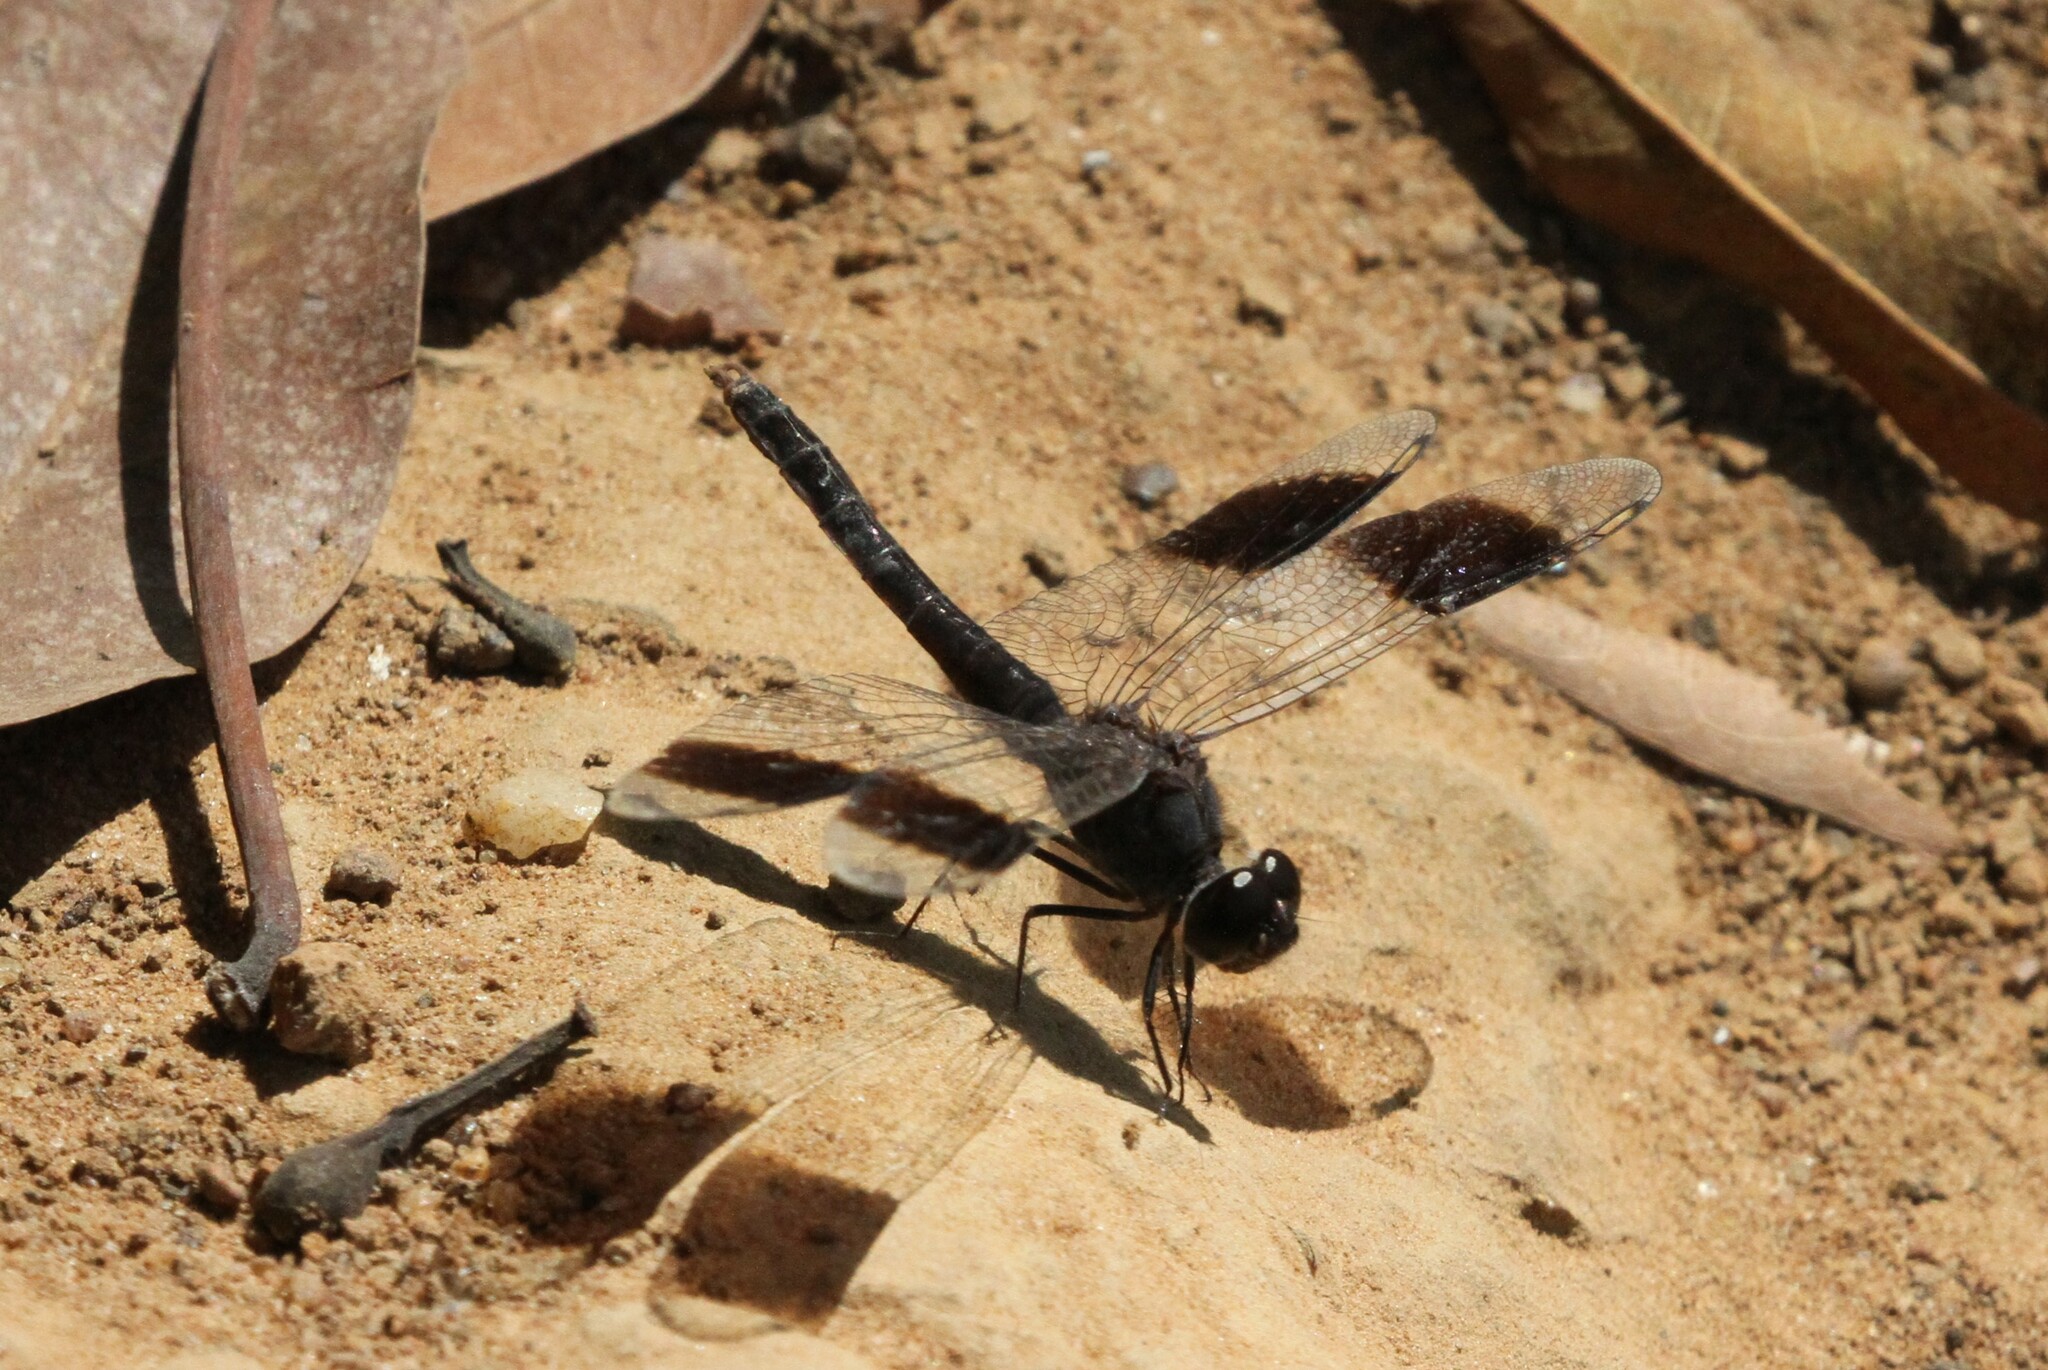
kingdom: Animalia
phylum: Arthropoda
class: Insecta
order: Odonata
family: Libellulidae
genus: Brachythemis
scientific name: Brachythemis leucosticta
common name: Banded groundling
